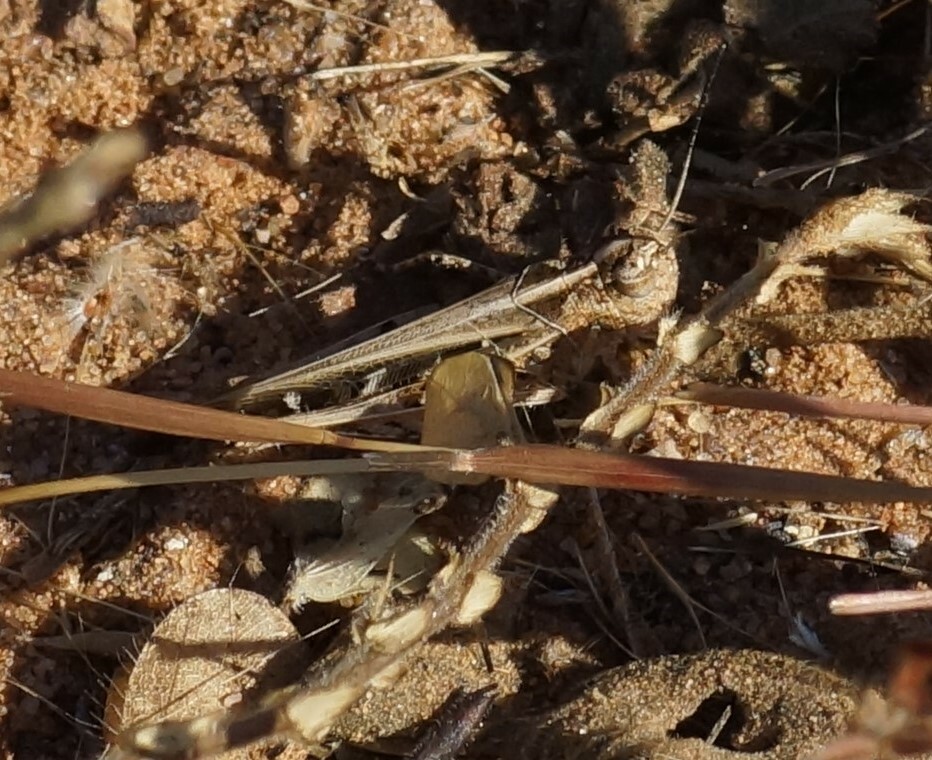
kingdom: Animalia
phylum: Arthropoda
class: Insecta
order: Orthoptera
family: Acrididae
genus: Heteropternis
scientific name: Heteropternis obscurella
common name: Long-legged bandwing
